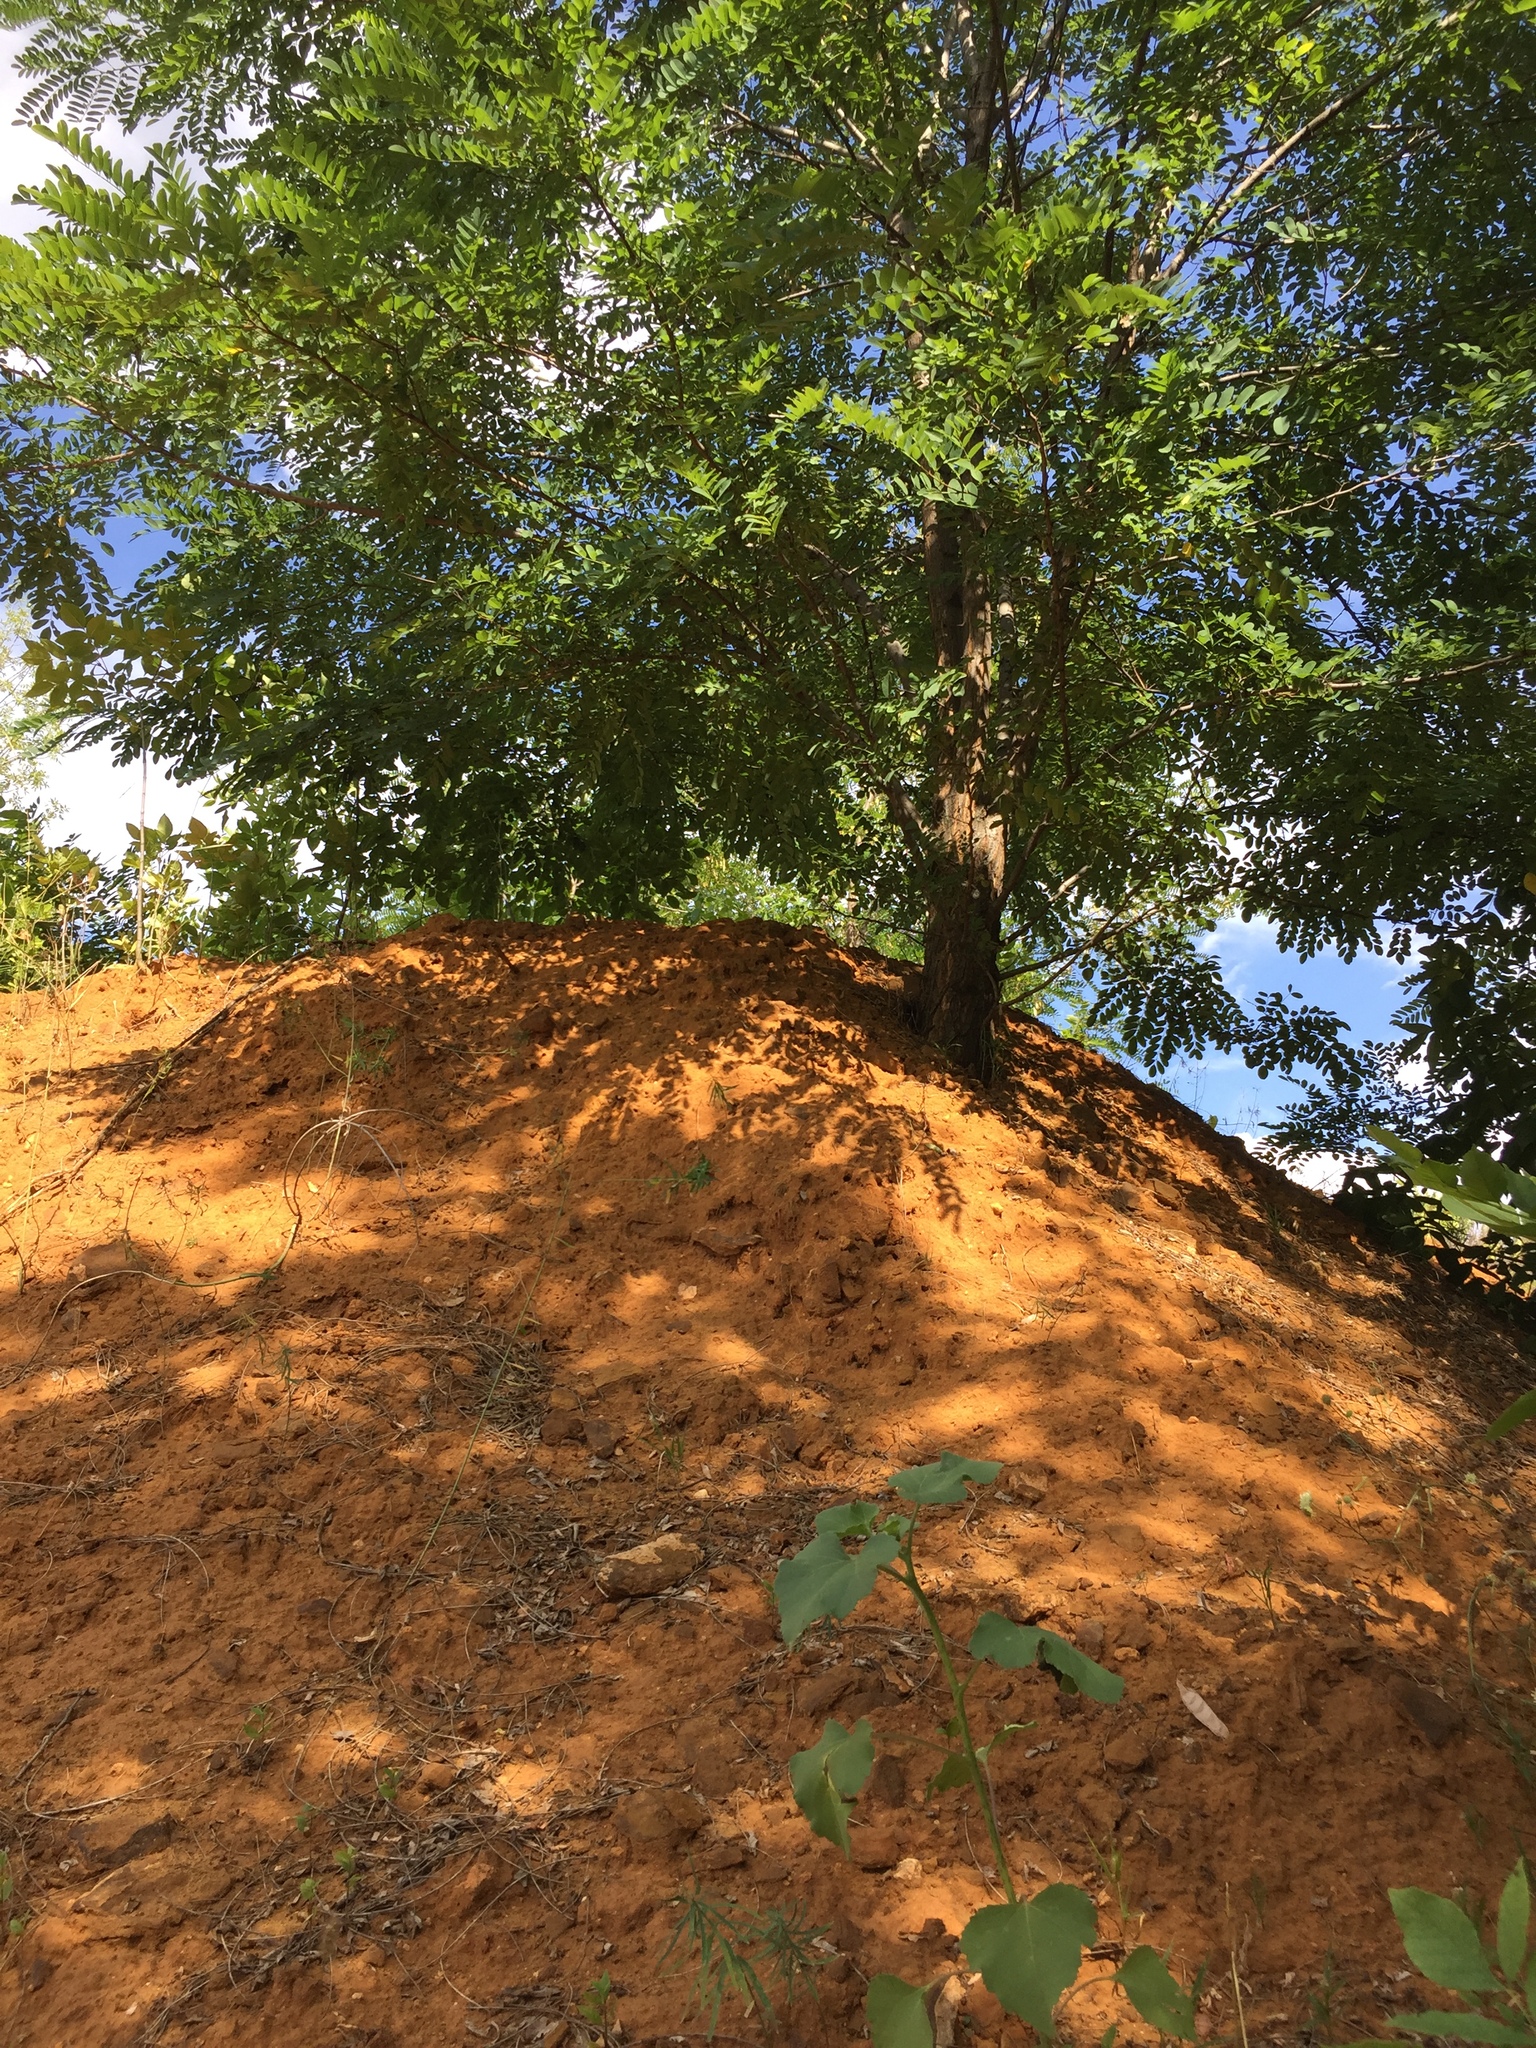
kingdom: Plantae
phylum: Tracheophyta
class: Magnoliopsida
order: Rosales
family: Ulmaceae
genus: Ulmus
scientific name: Ulmus pumila
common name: Siberian elm
